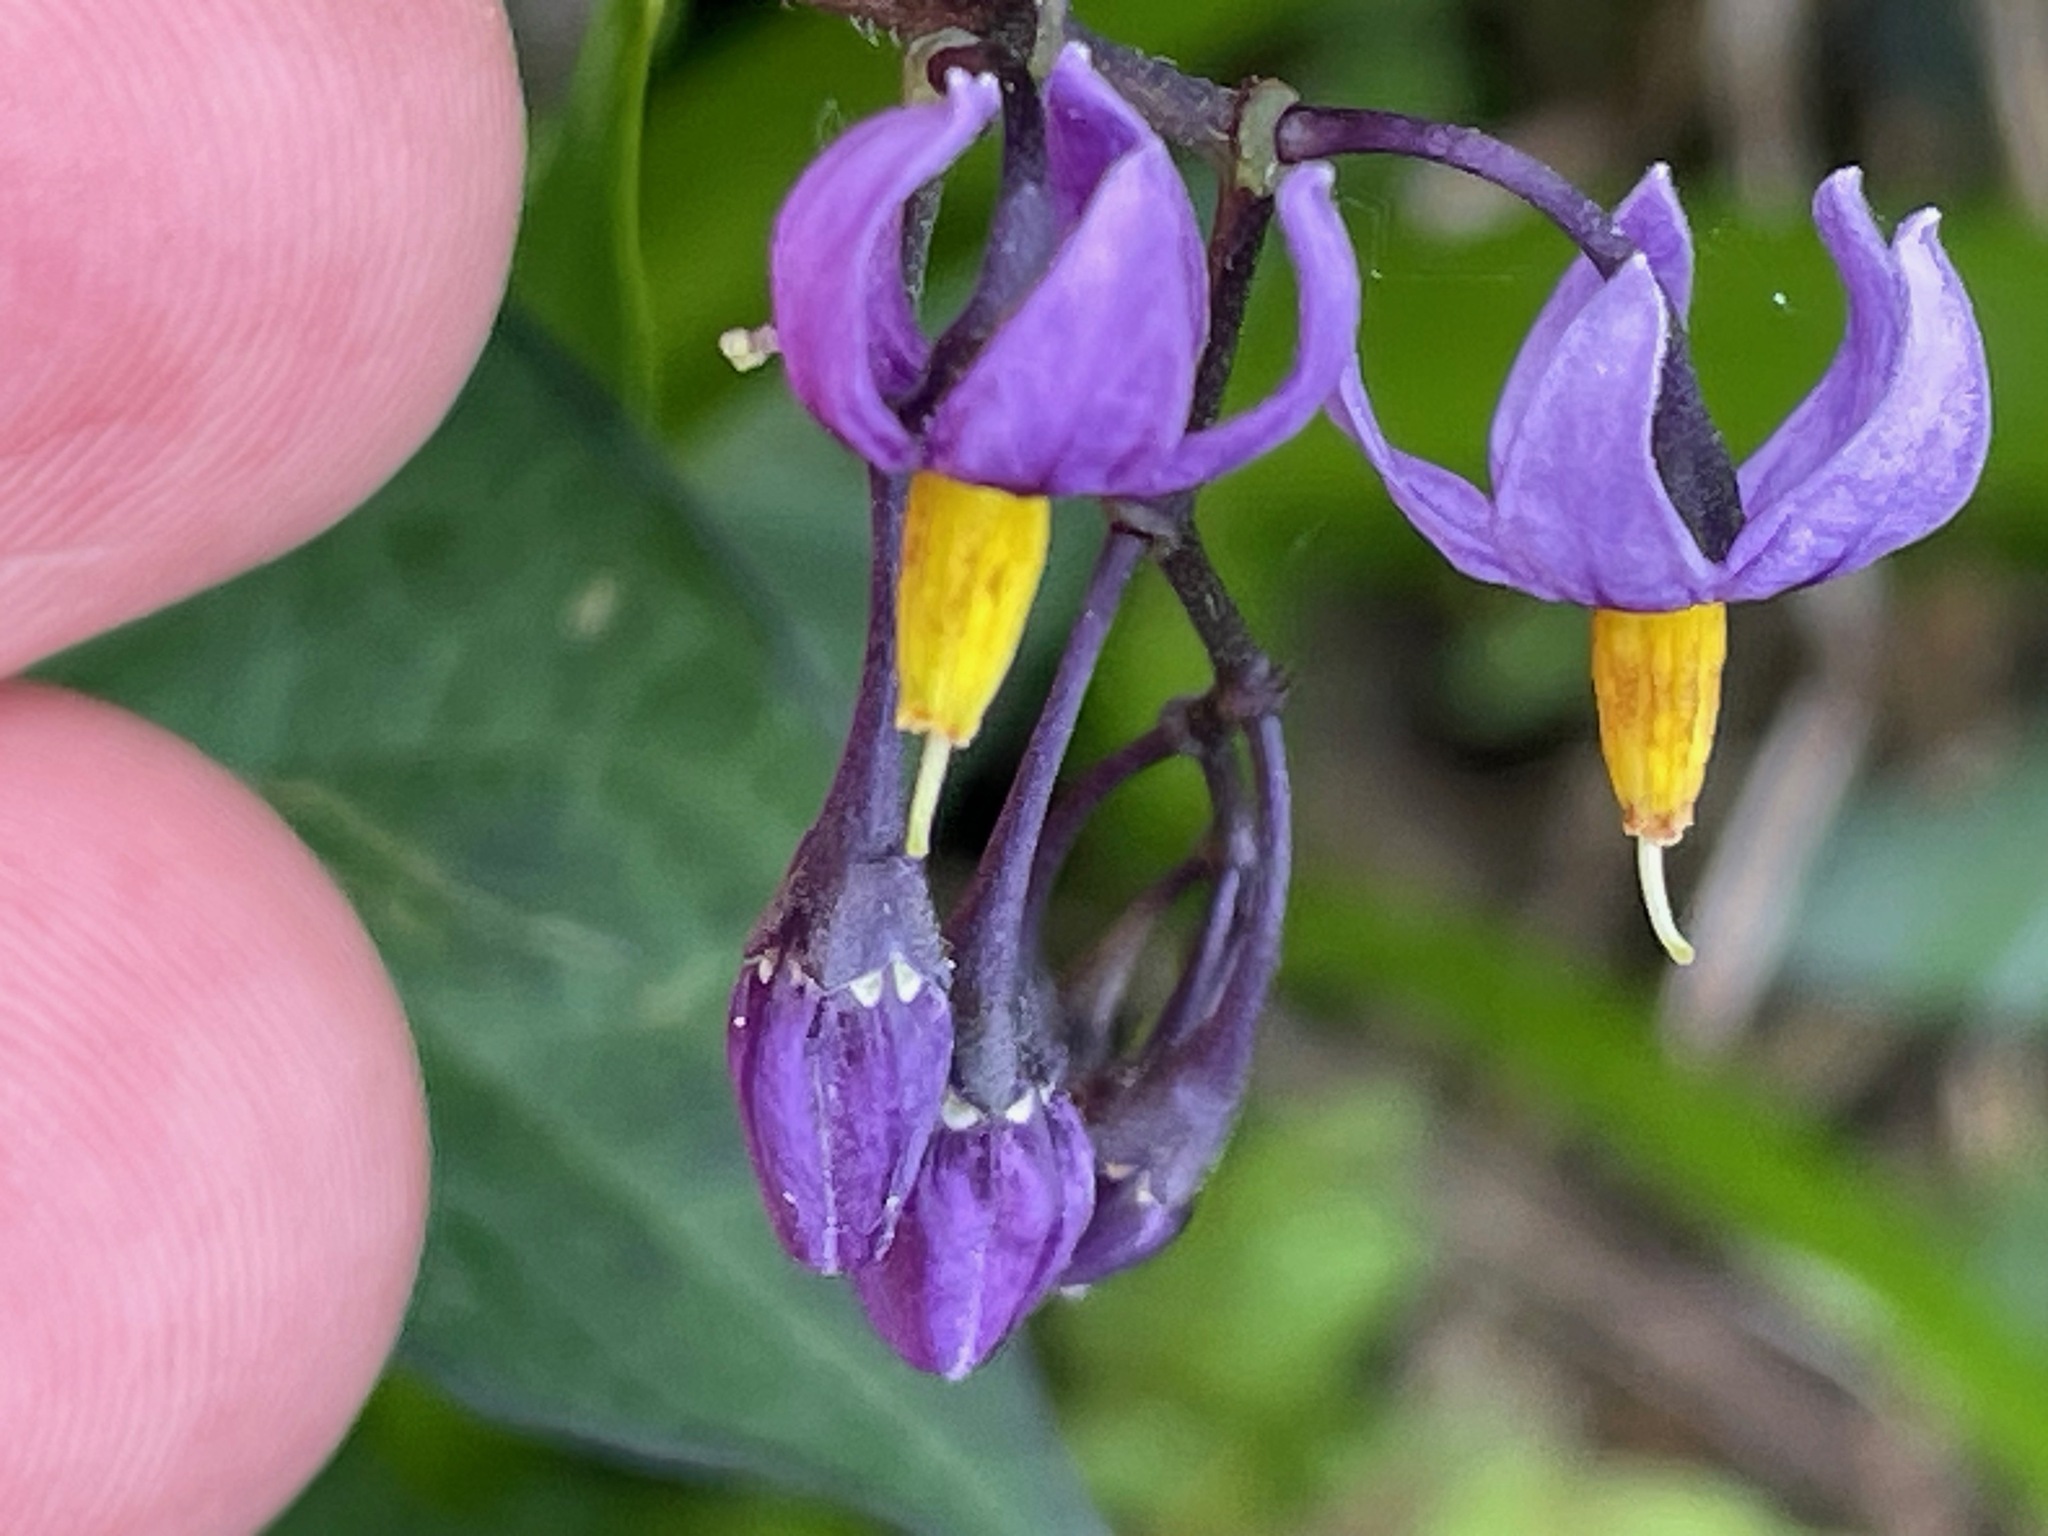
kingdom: Plantae
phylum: Tracheophyta
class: Magnoliopsida
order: Solanales
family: Solanaceae
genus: Solanum
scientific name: Solanum dulcamara
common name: Climbing nightshade
